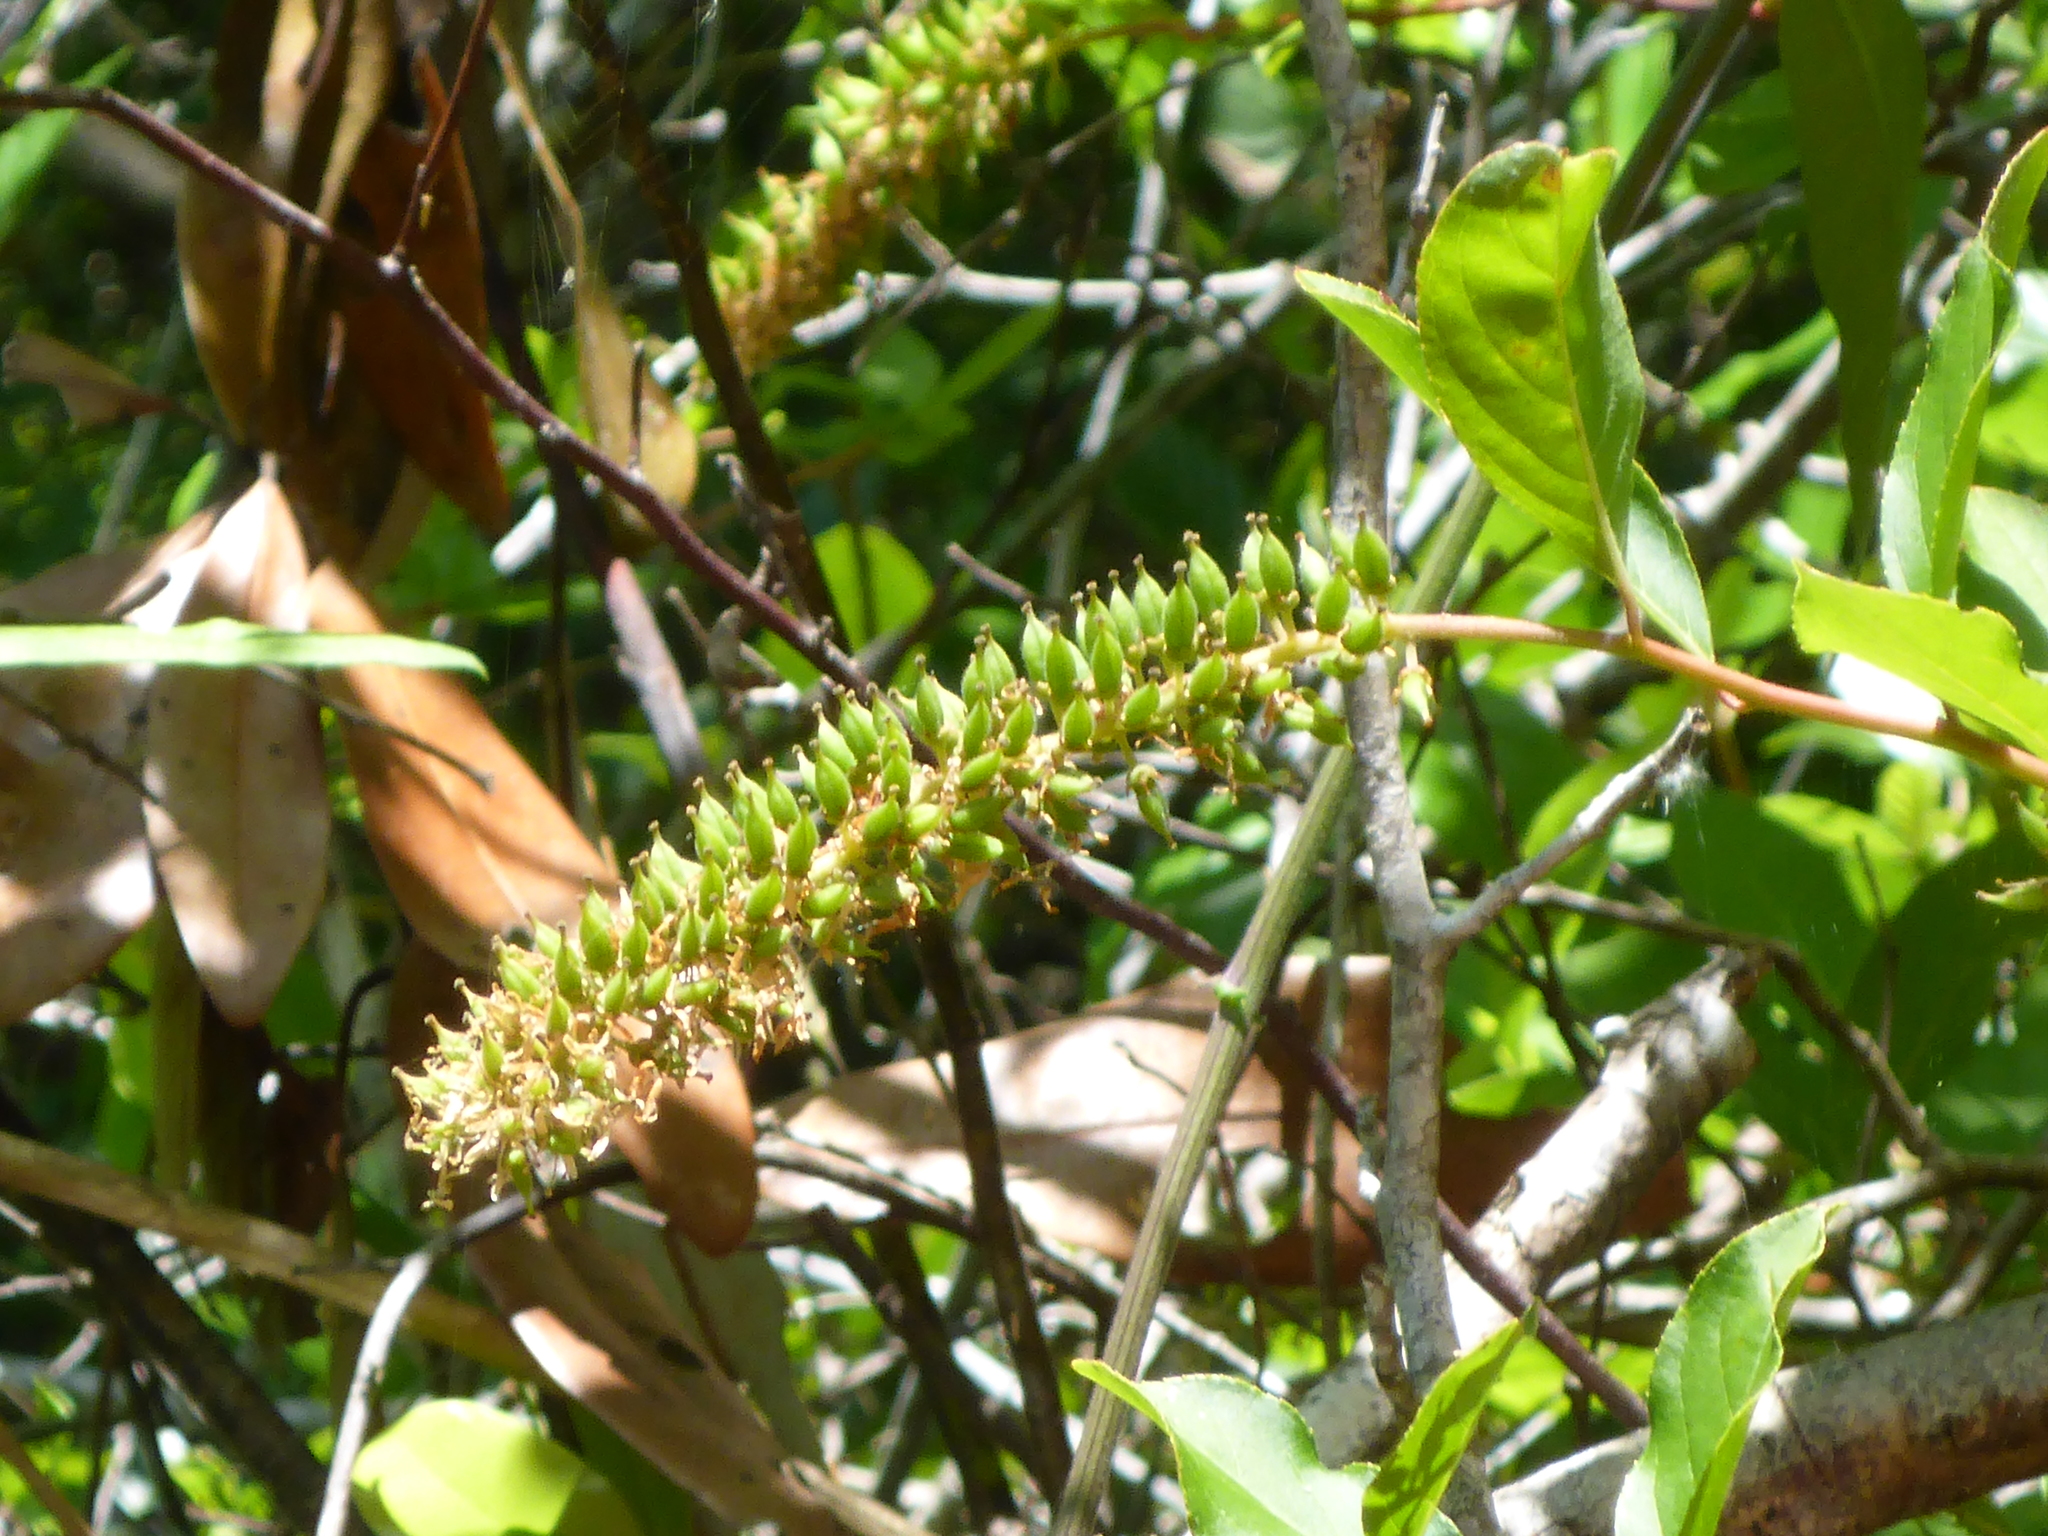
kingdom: Plantae
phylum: Tracheophyta
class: Magnoliopsida
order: Saxifragales
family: Iteaceae
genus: Itea
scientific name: Itea virginica
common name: Sweetspire
